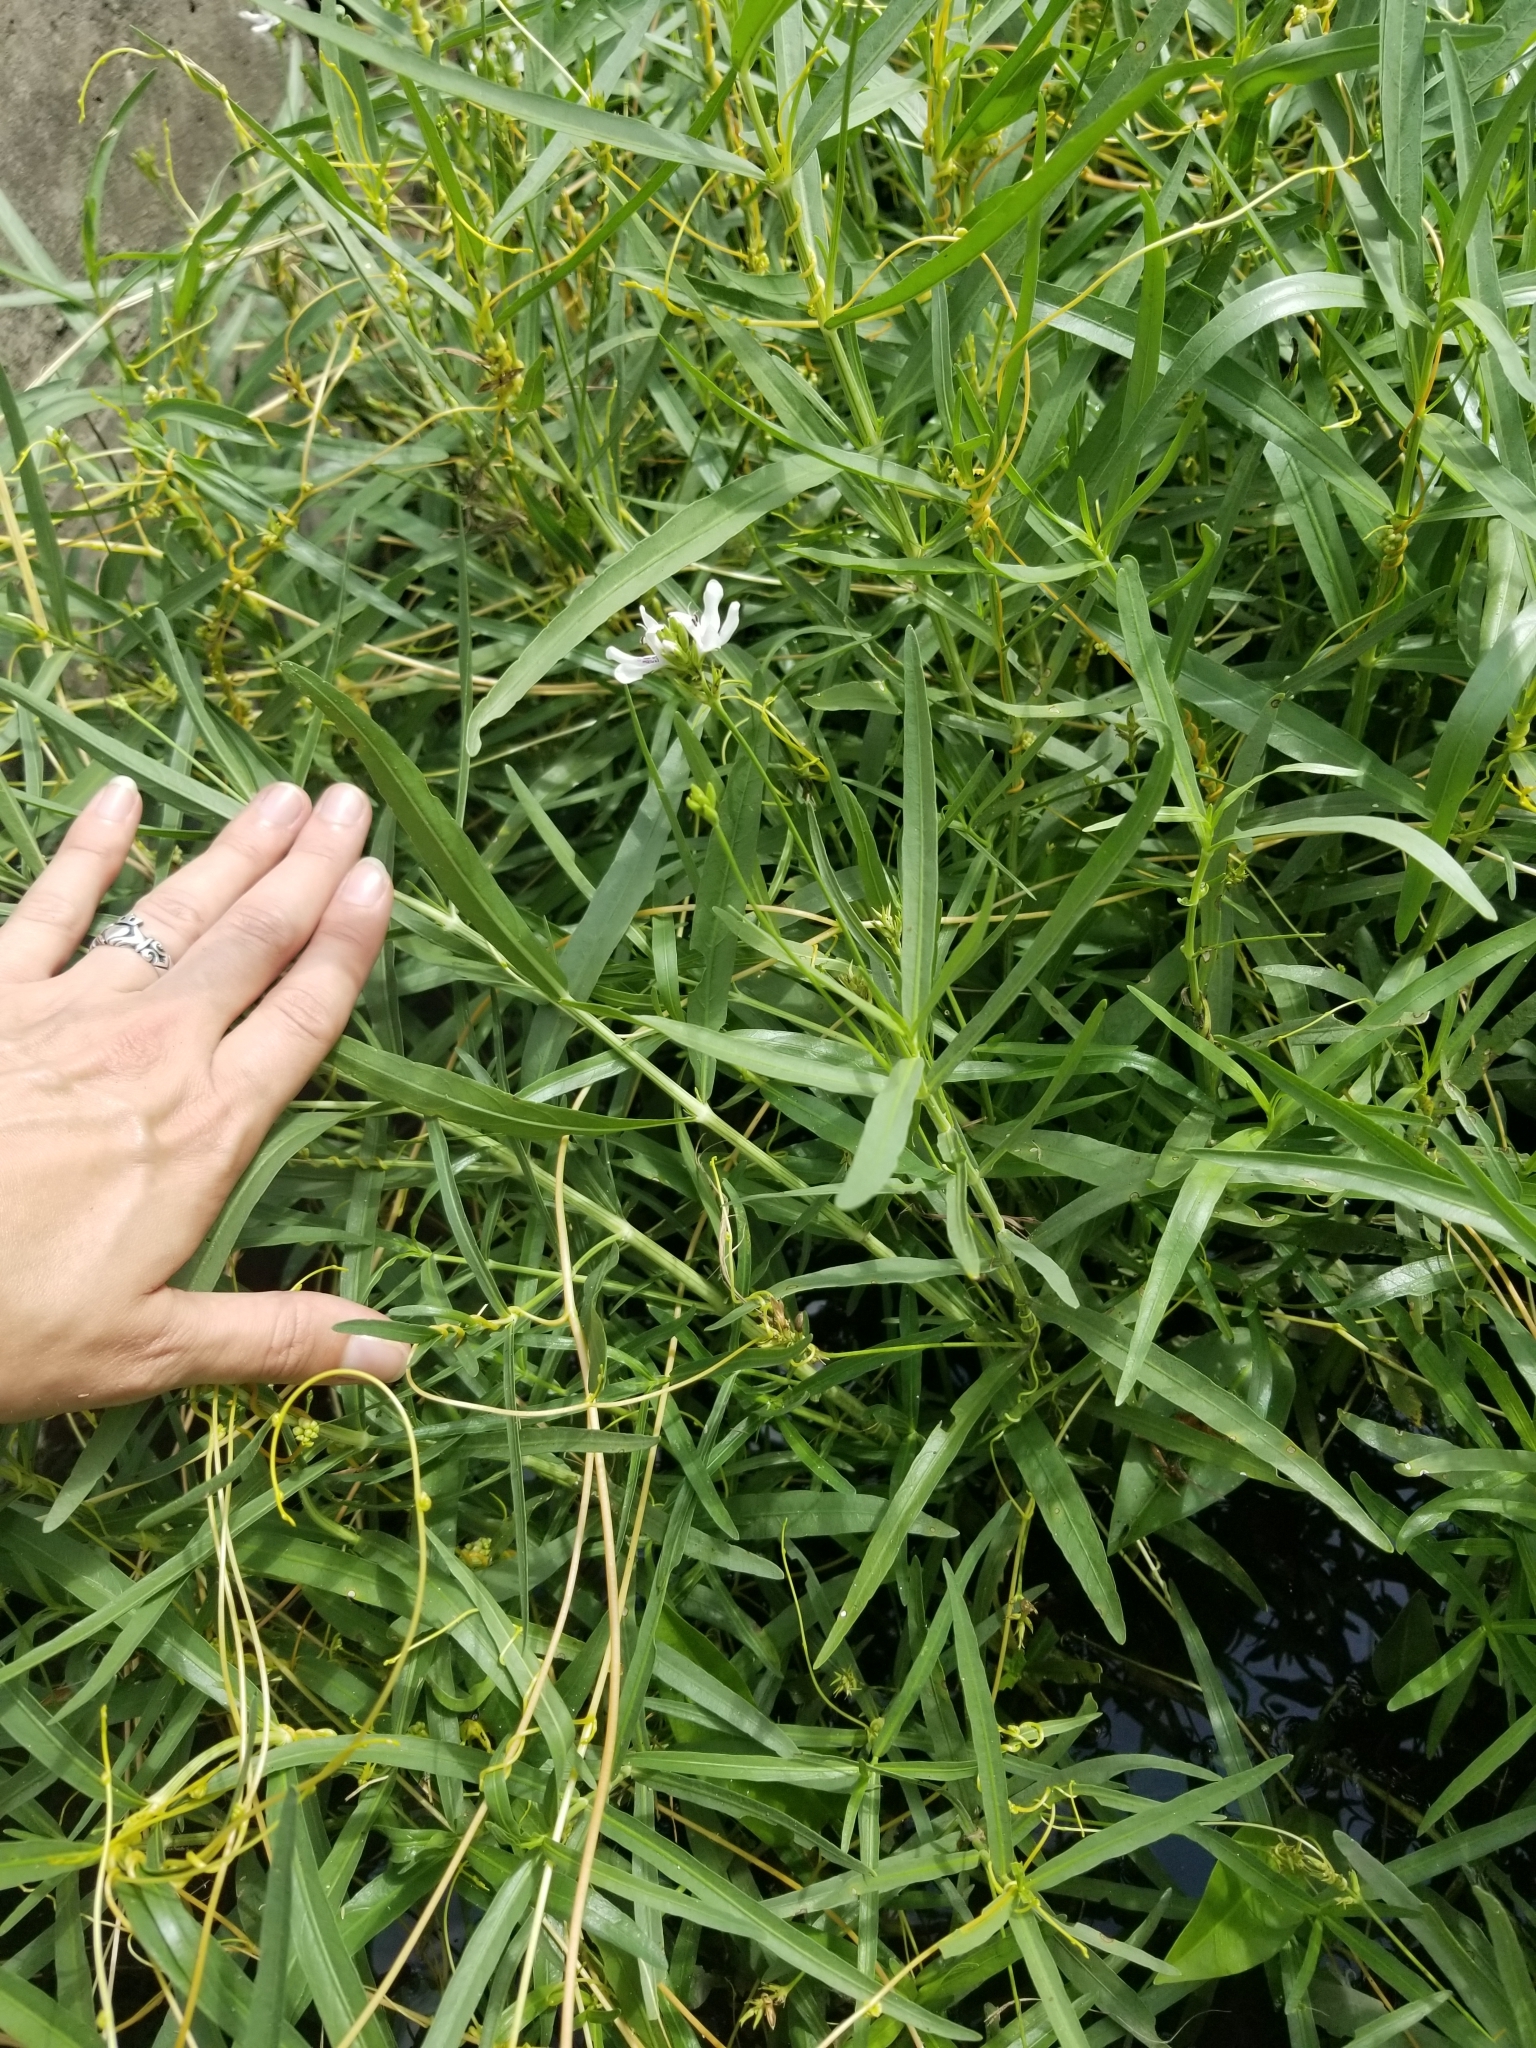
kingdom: Plantae
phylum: Tracheophyta
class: Magnoliopsida
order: Lamiales
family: Acanthaceae
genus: Dianthera
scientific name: Dianthera americana
